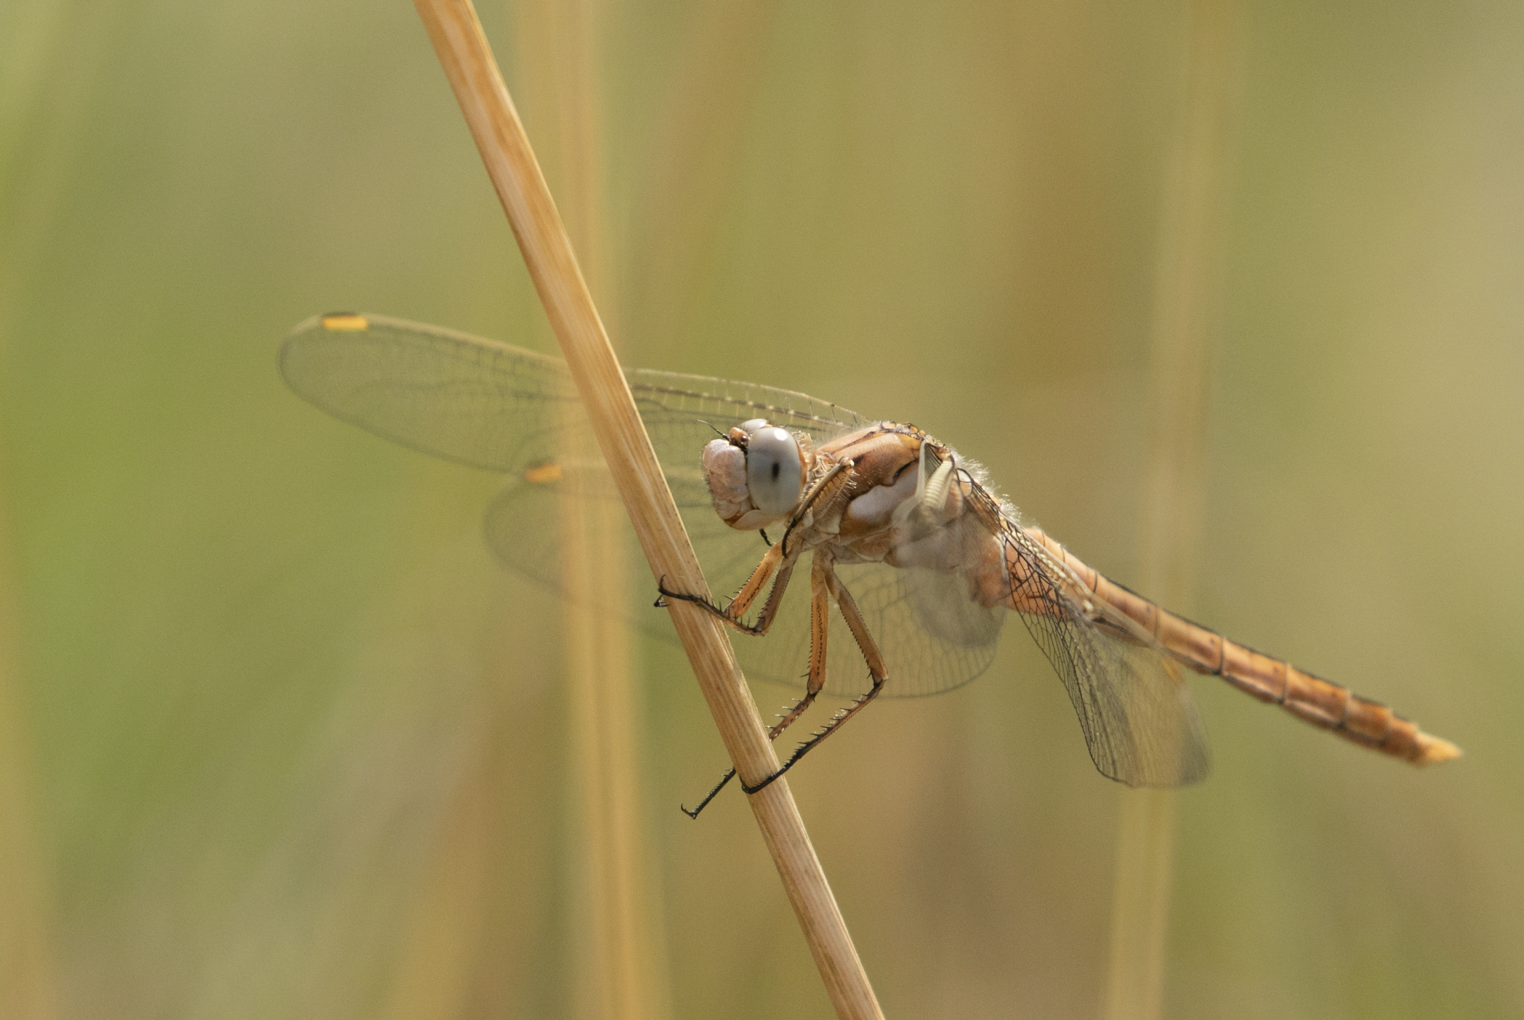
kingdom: Animalia
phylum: Arthropoda
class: Insecta
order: Odonata
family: Libellulidae
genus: Orthetrum
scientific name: Orthetrum brunneum
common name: Southern skimmer
